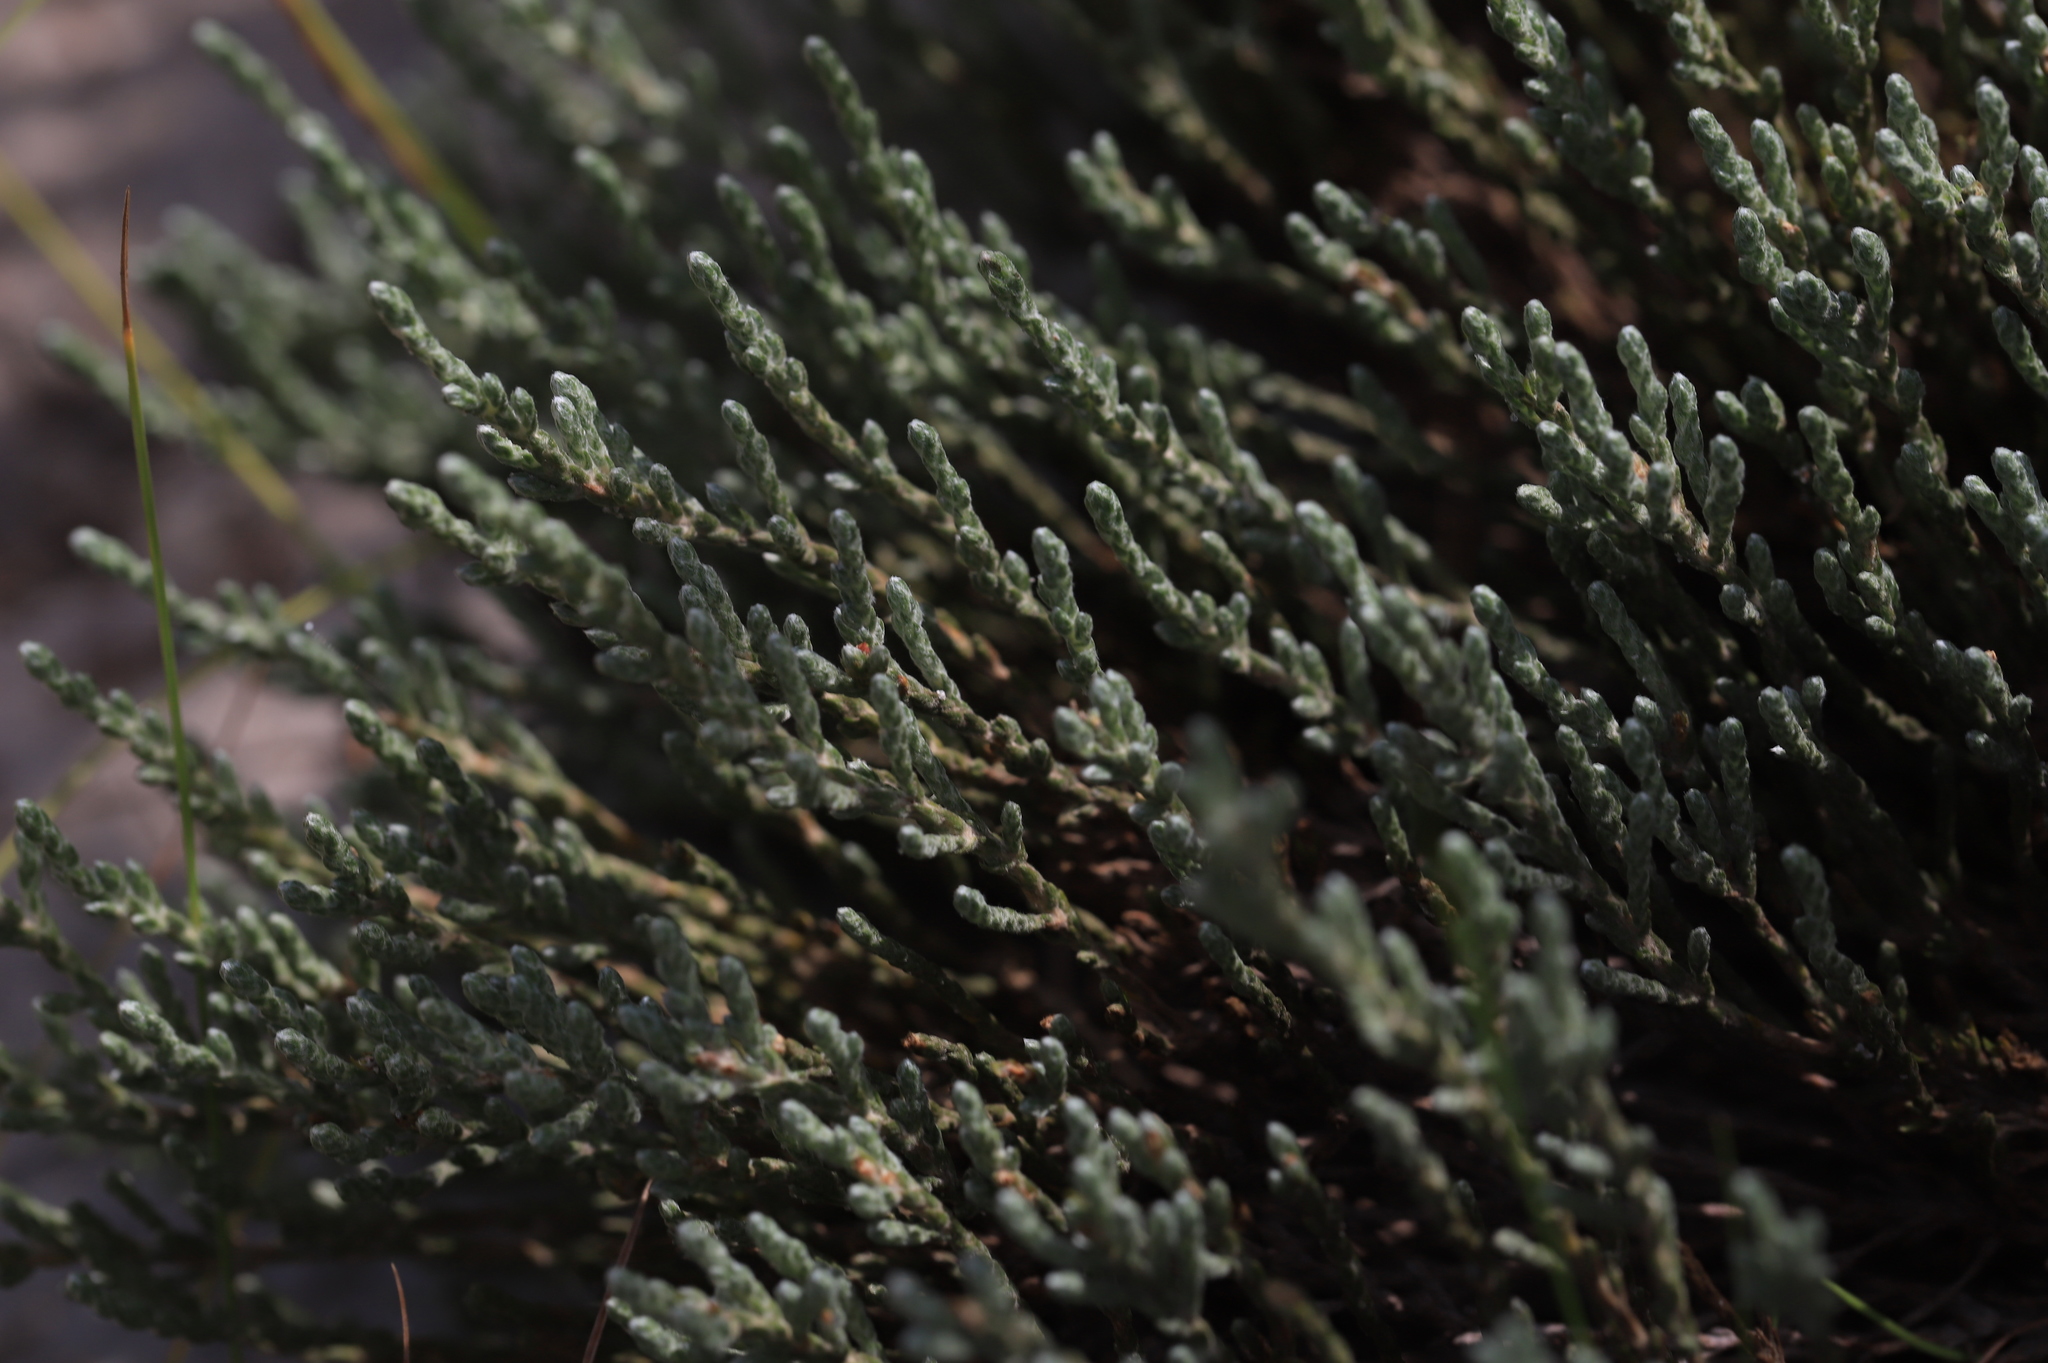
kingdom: Plantae
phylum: Tracheophyta
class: Magnoliopsida
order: Malvales
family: Cistaceae
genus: Hudsonia
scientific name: Hudsonia tomentosa
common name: Beach-heath
